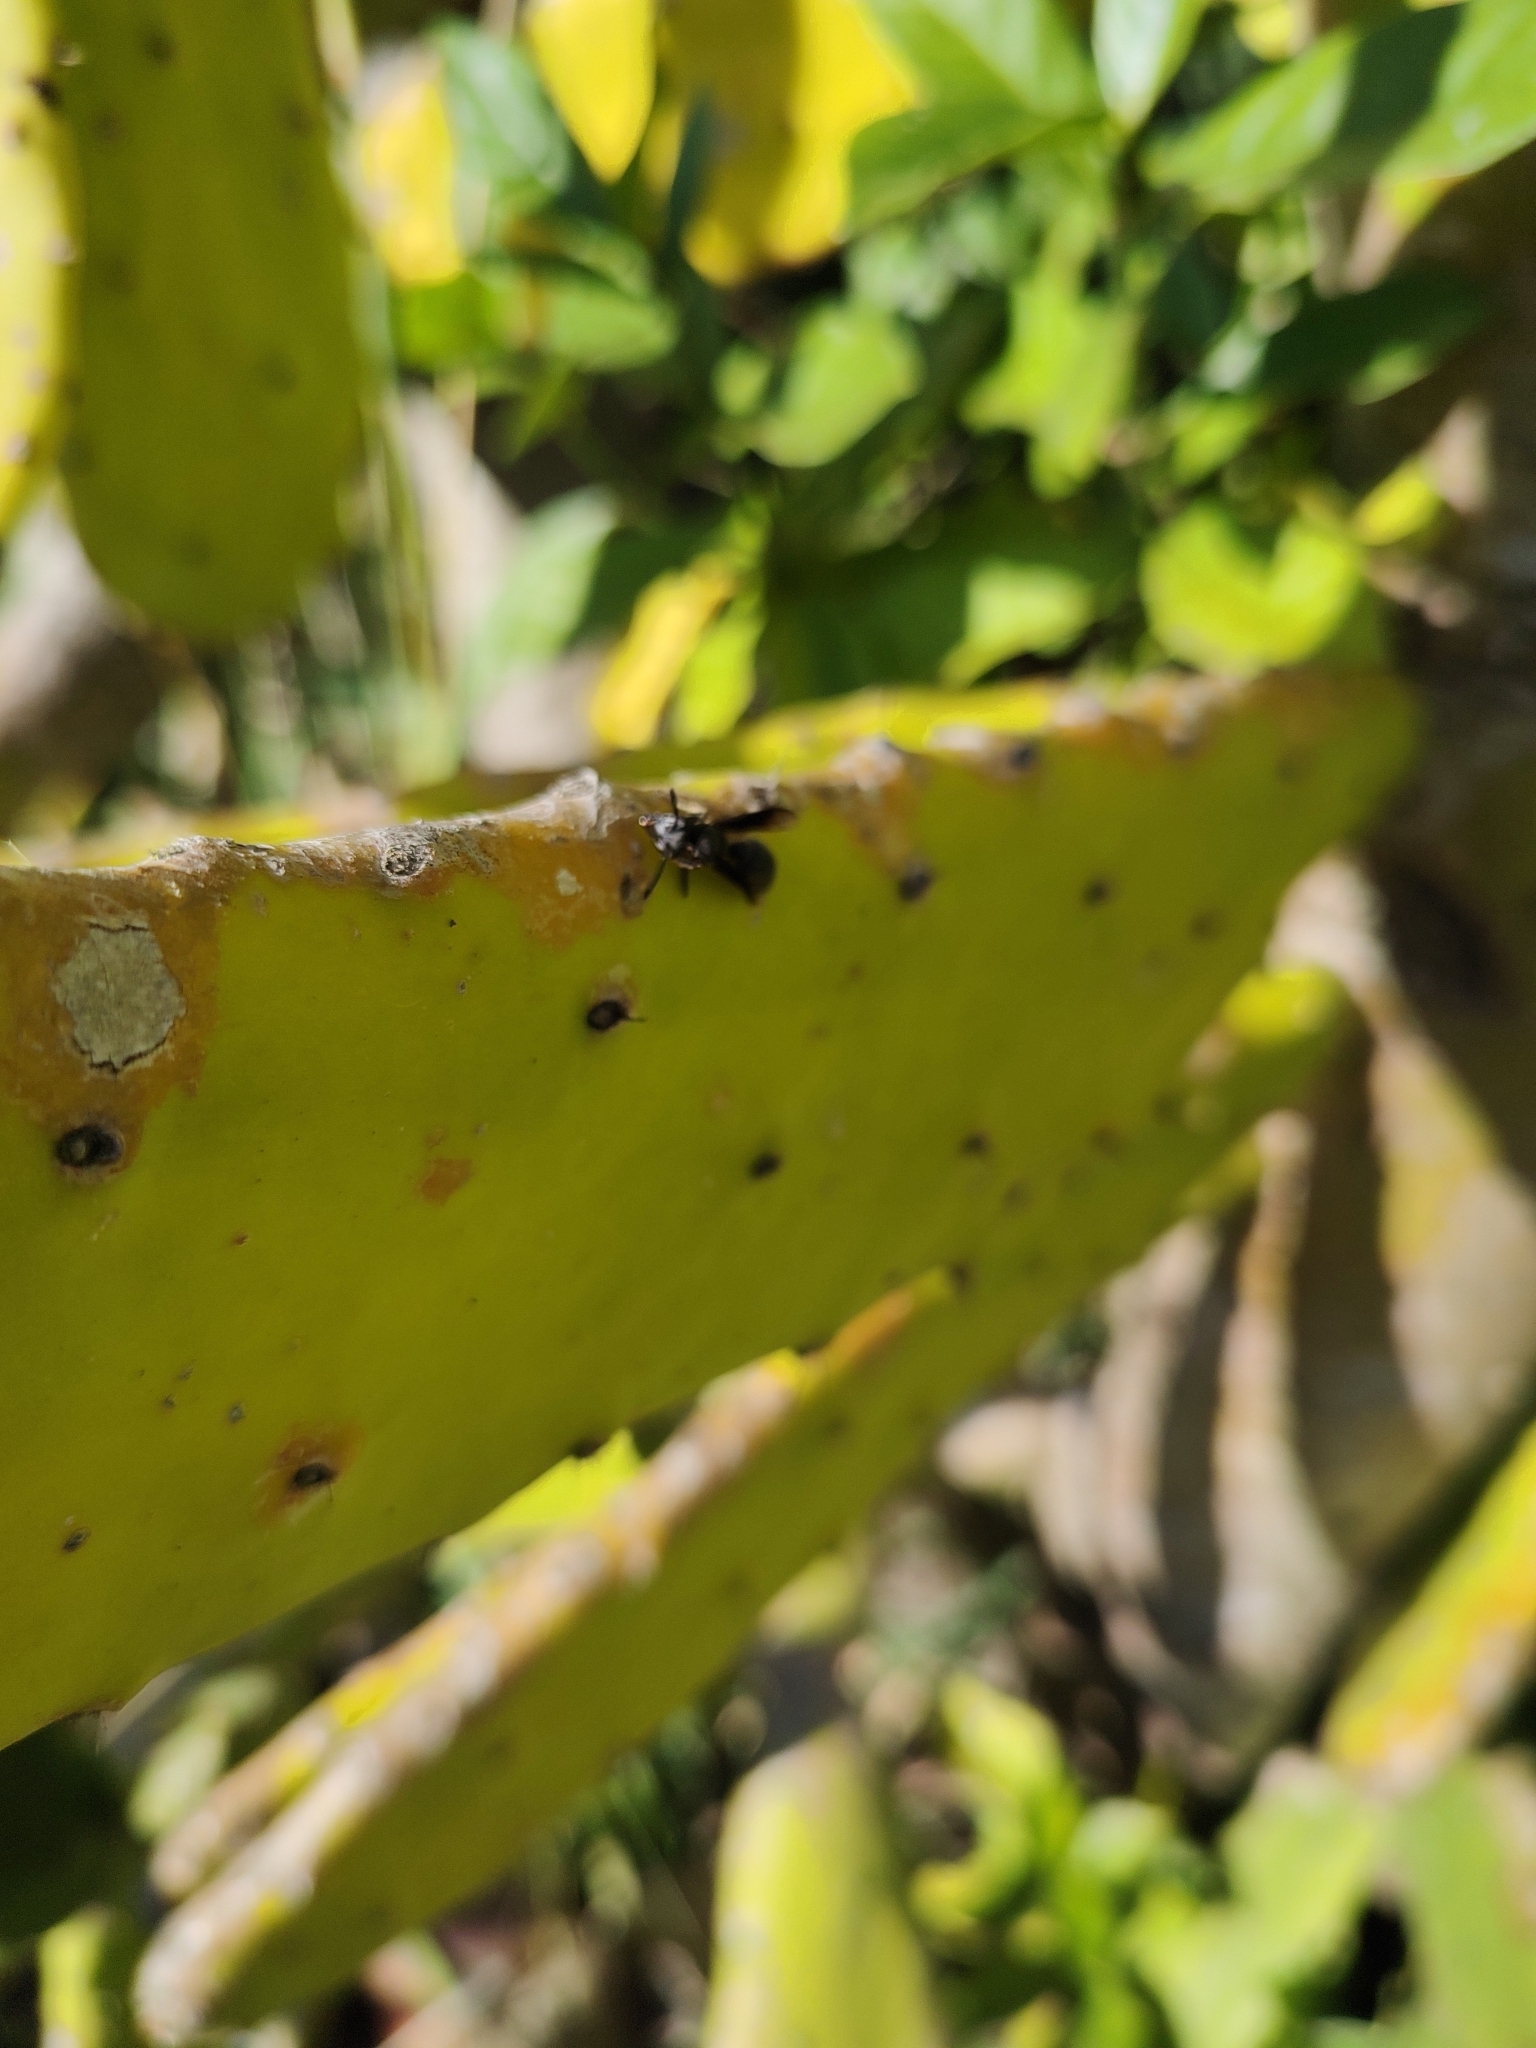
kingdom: Animalia
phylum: Arthropoda
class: Insecta
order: Hymenoptera
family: Eumenidae
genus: Polybia
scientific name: Polybia ignobilis
